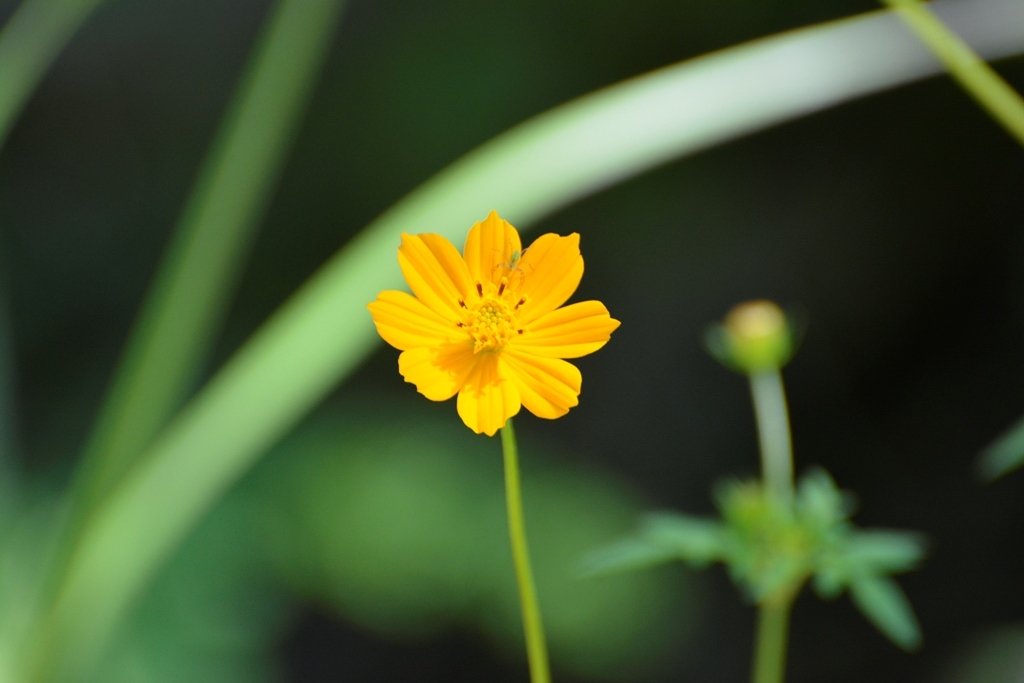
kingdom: Plantae
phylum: Tracheophyta
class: Magnoliopsida
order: Asterales
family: Asteraceae
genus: Cosmos
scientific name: Cosmos sulphureus
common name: Sulphur cosmos
